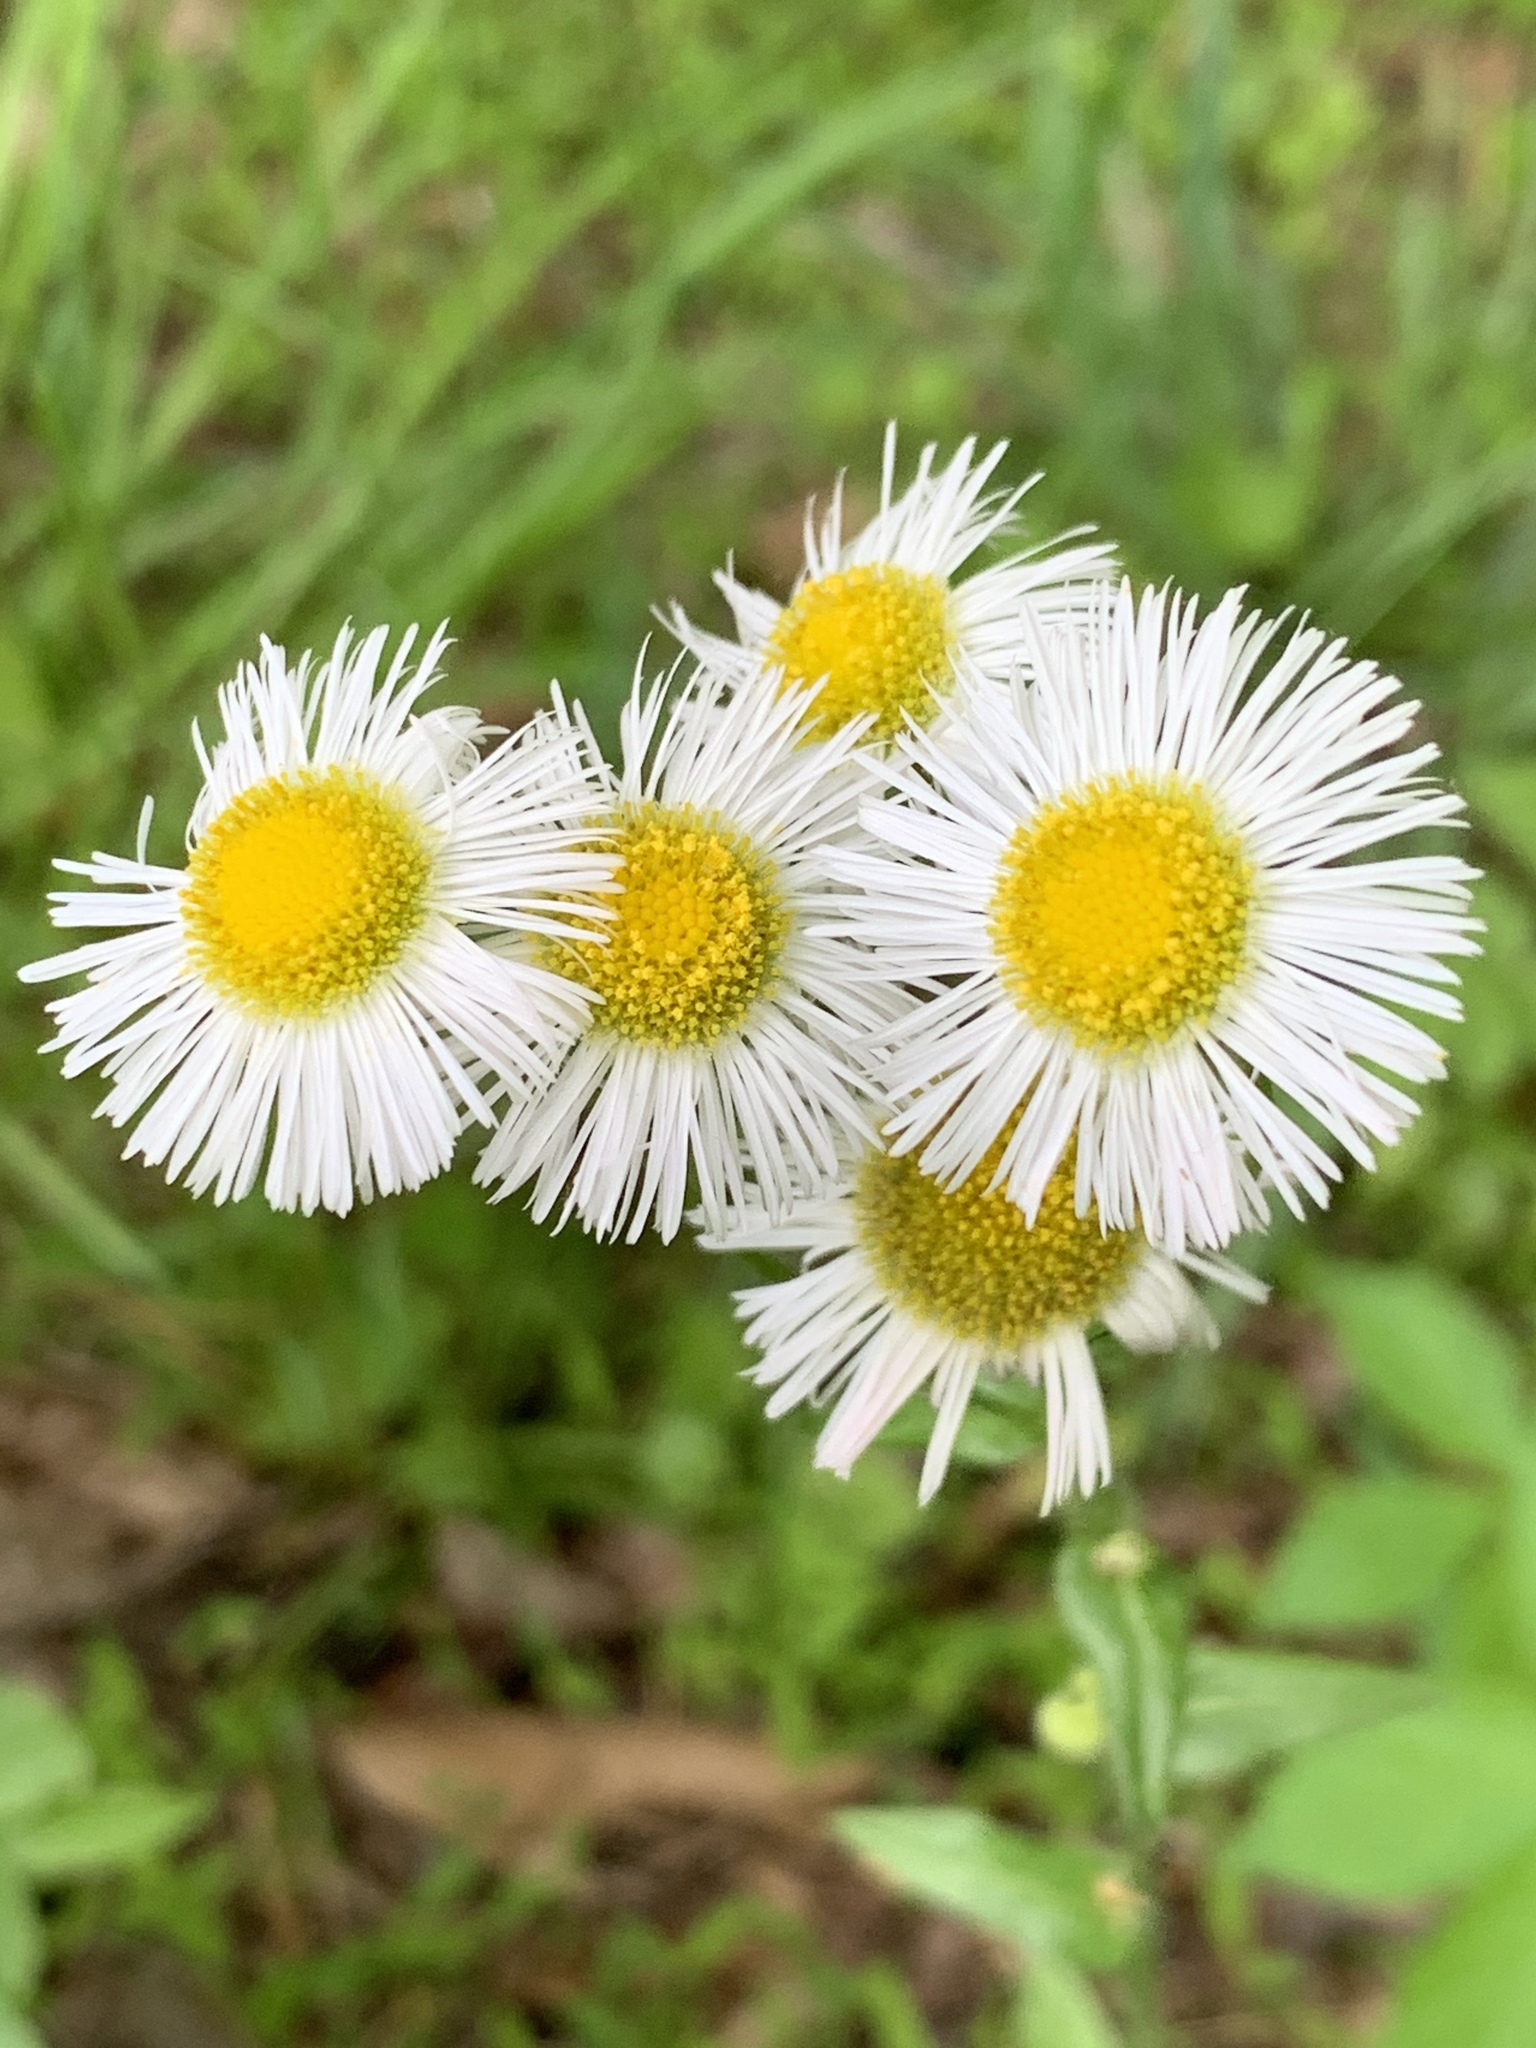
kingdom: Plantae
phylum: Tracheophyta
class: Magnoliopsida
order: Asterales
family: Asteraceae
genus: Erigeron
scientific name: Erigeron philadelphicus
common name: Robin's-plantain
